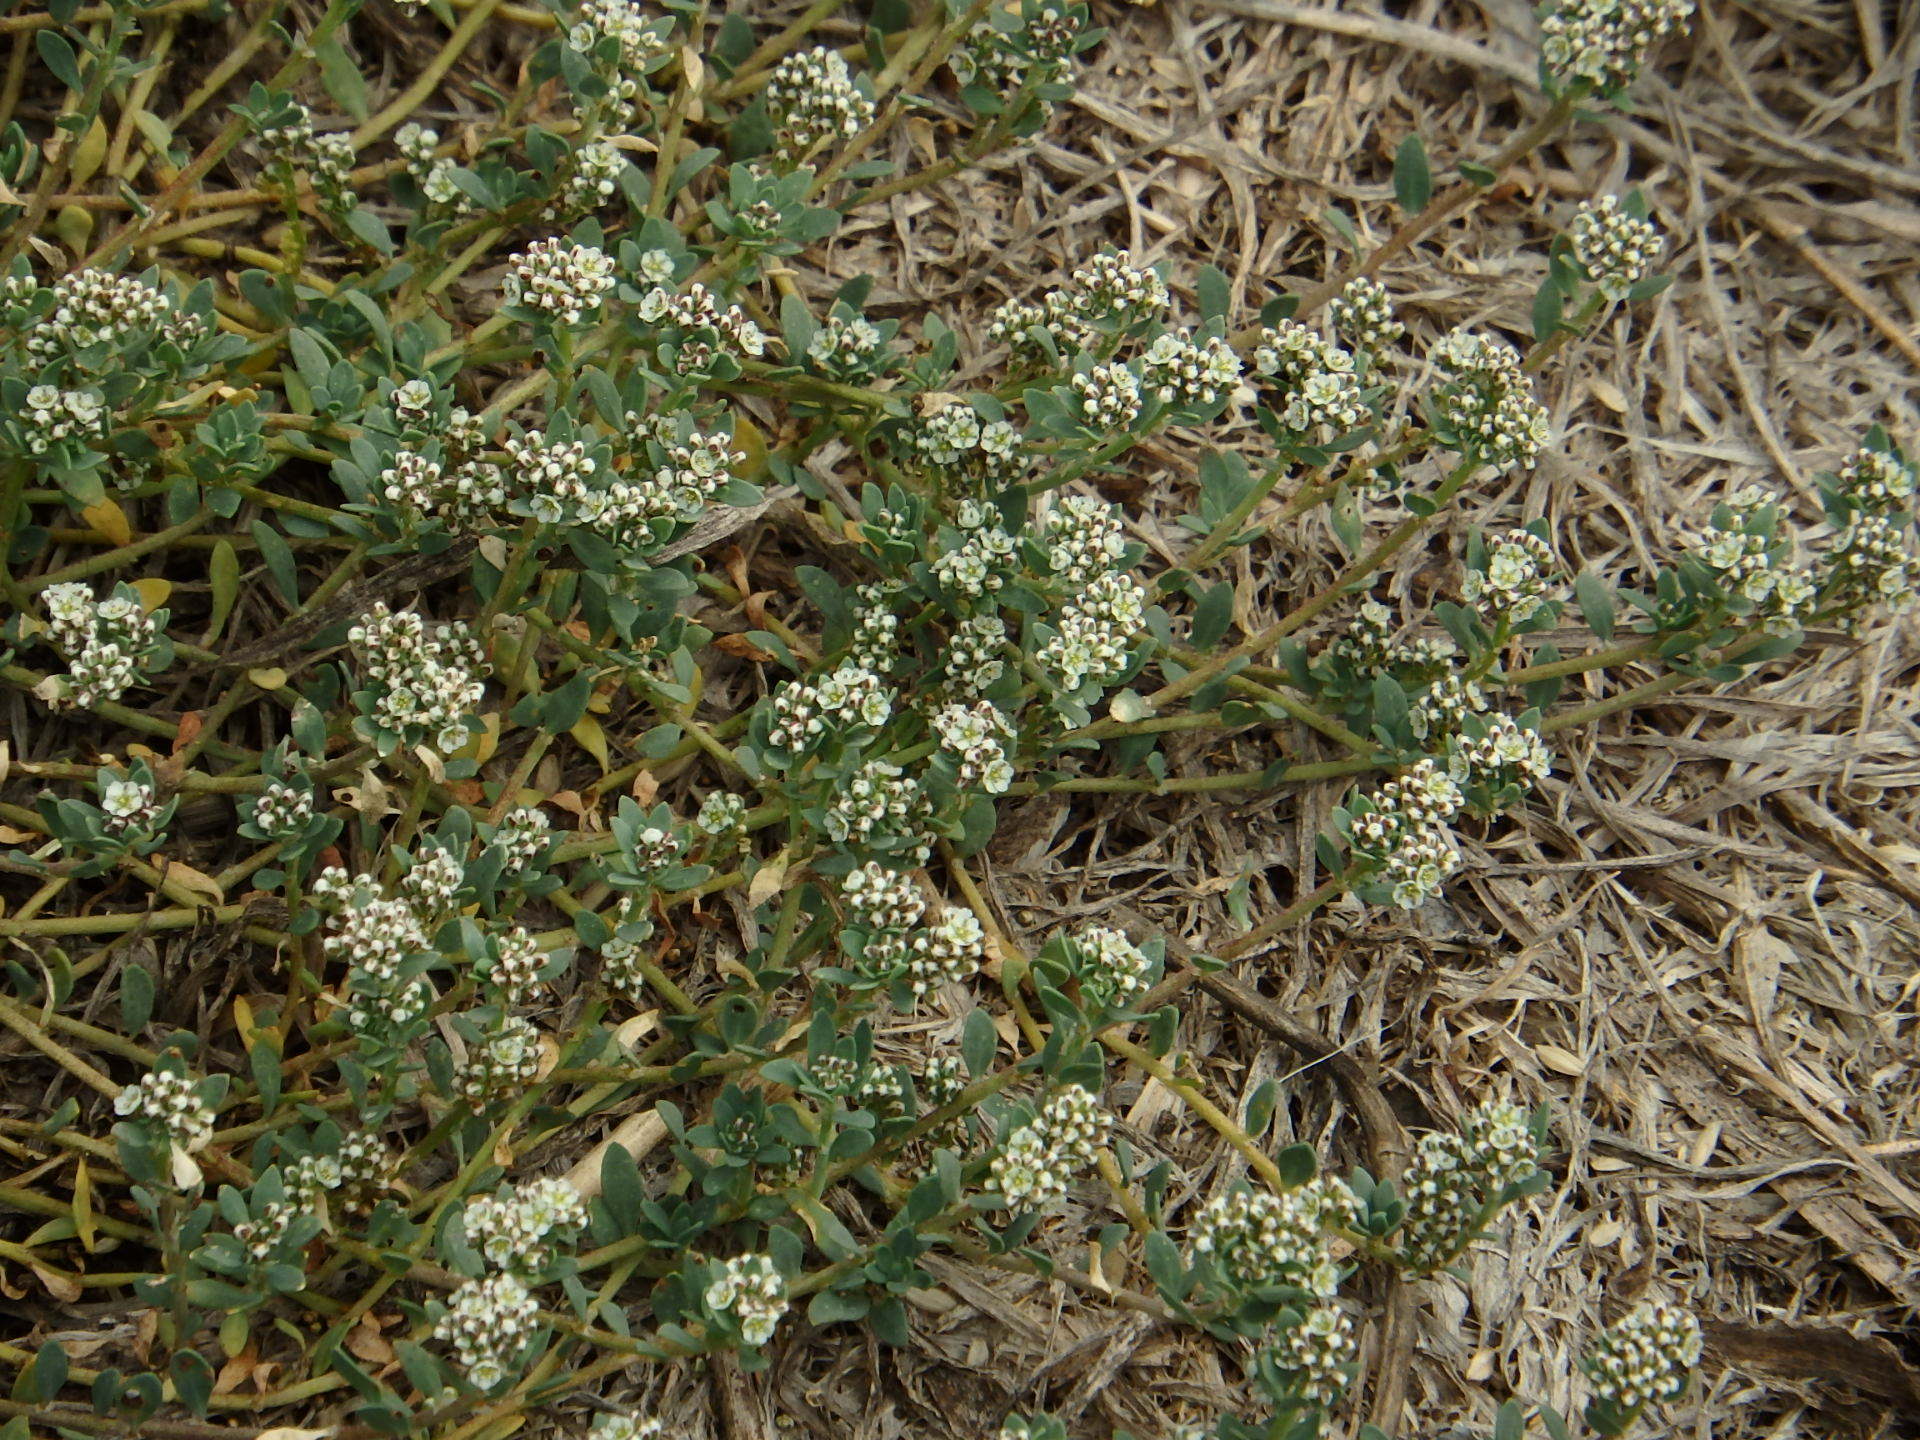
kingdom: Plantae
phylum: Tracheophyta
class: Magnoliopsida
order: Caryophyllales
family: Caryophyllaceae
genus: Corrigiola
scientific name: Corrigiola litoralis
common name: Strapwort
